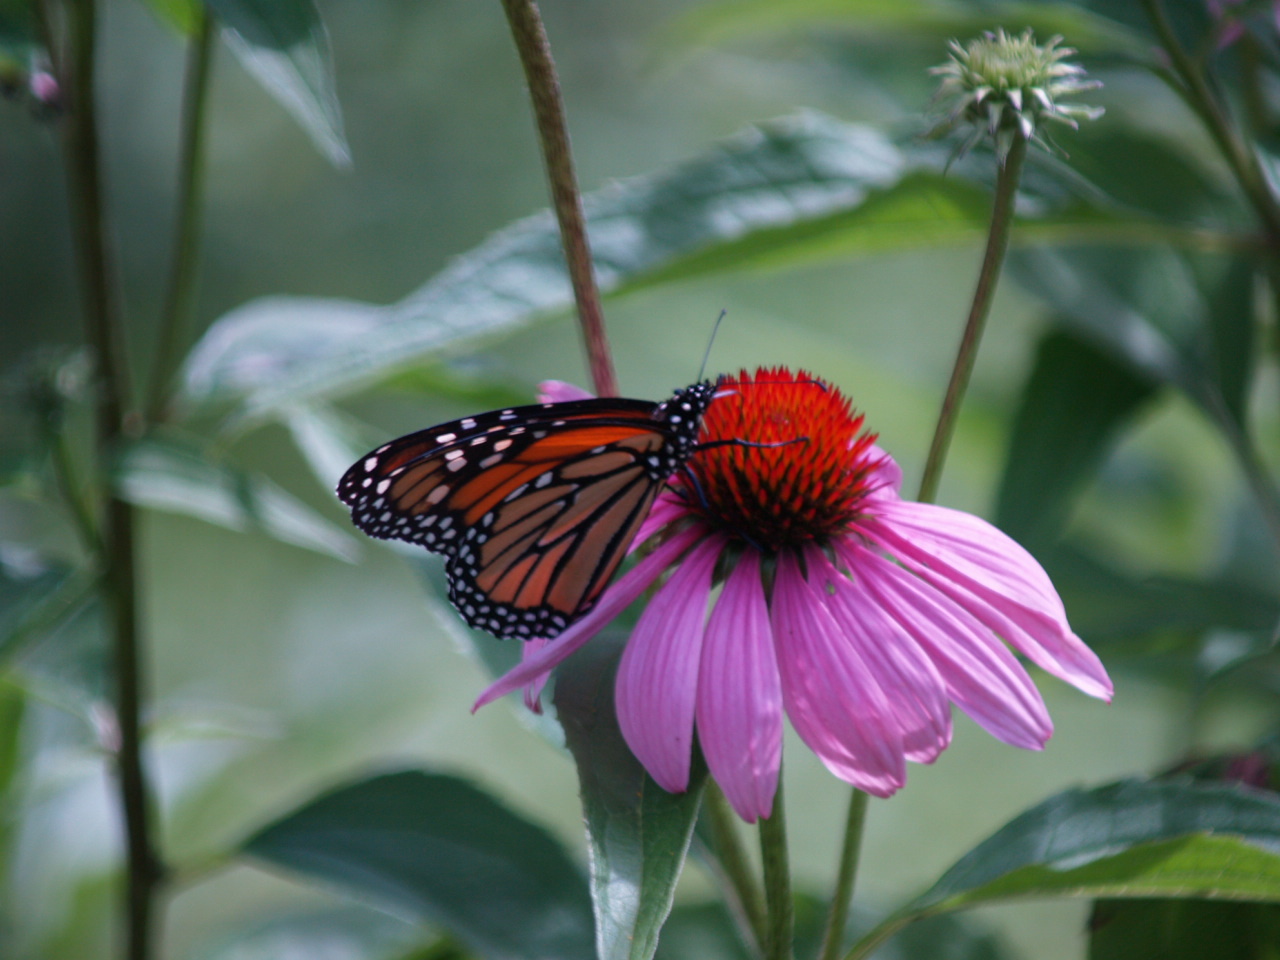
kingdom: Animalia
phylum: Arthropoda
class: Insecta
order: Lepidoptera
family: Nymphalidae
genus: Danaus
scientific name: Danaus plexippus
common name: Monarch
